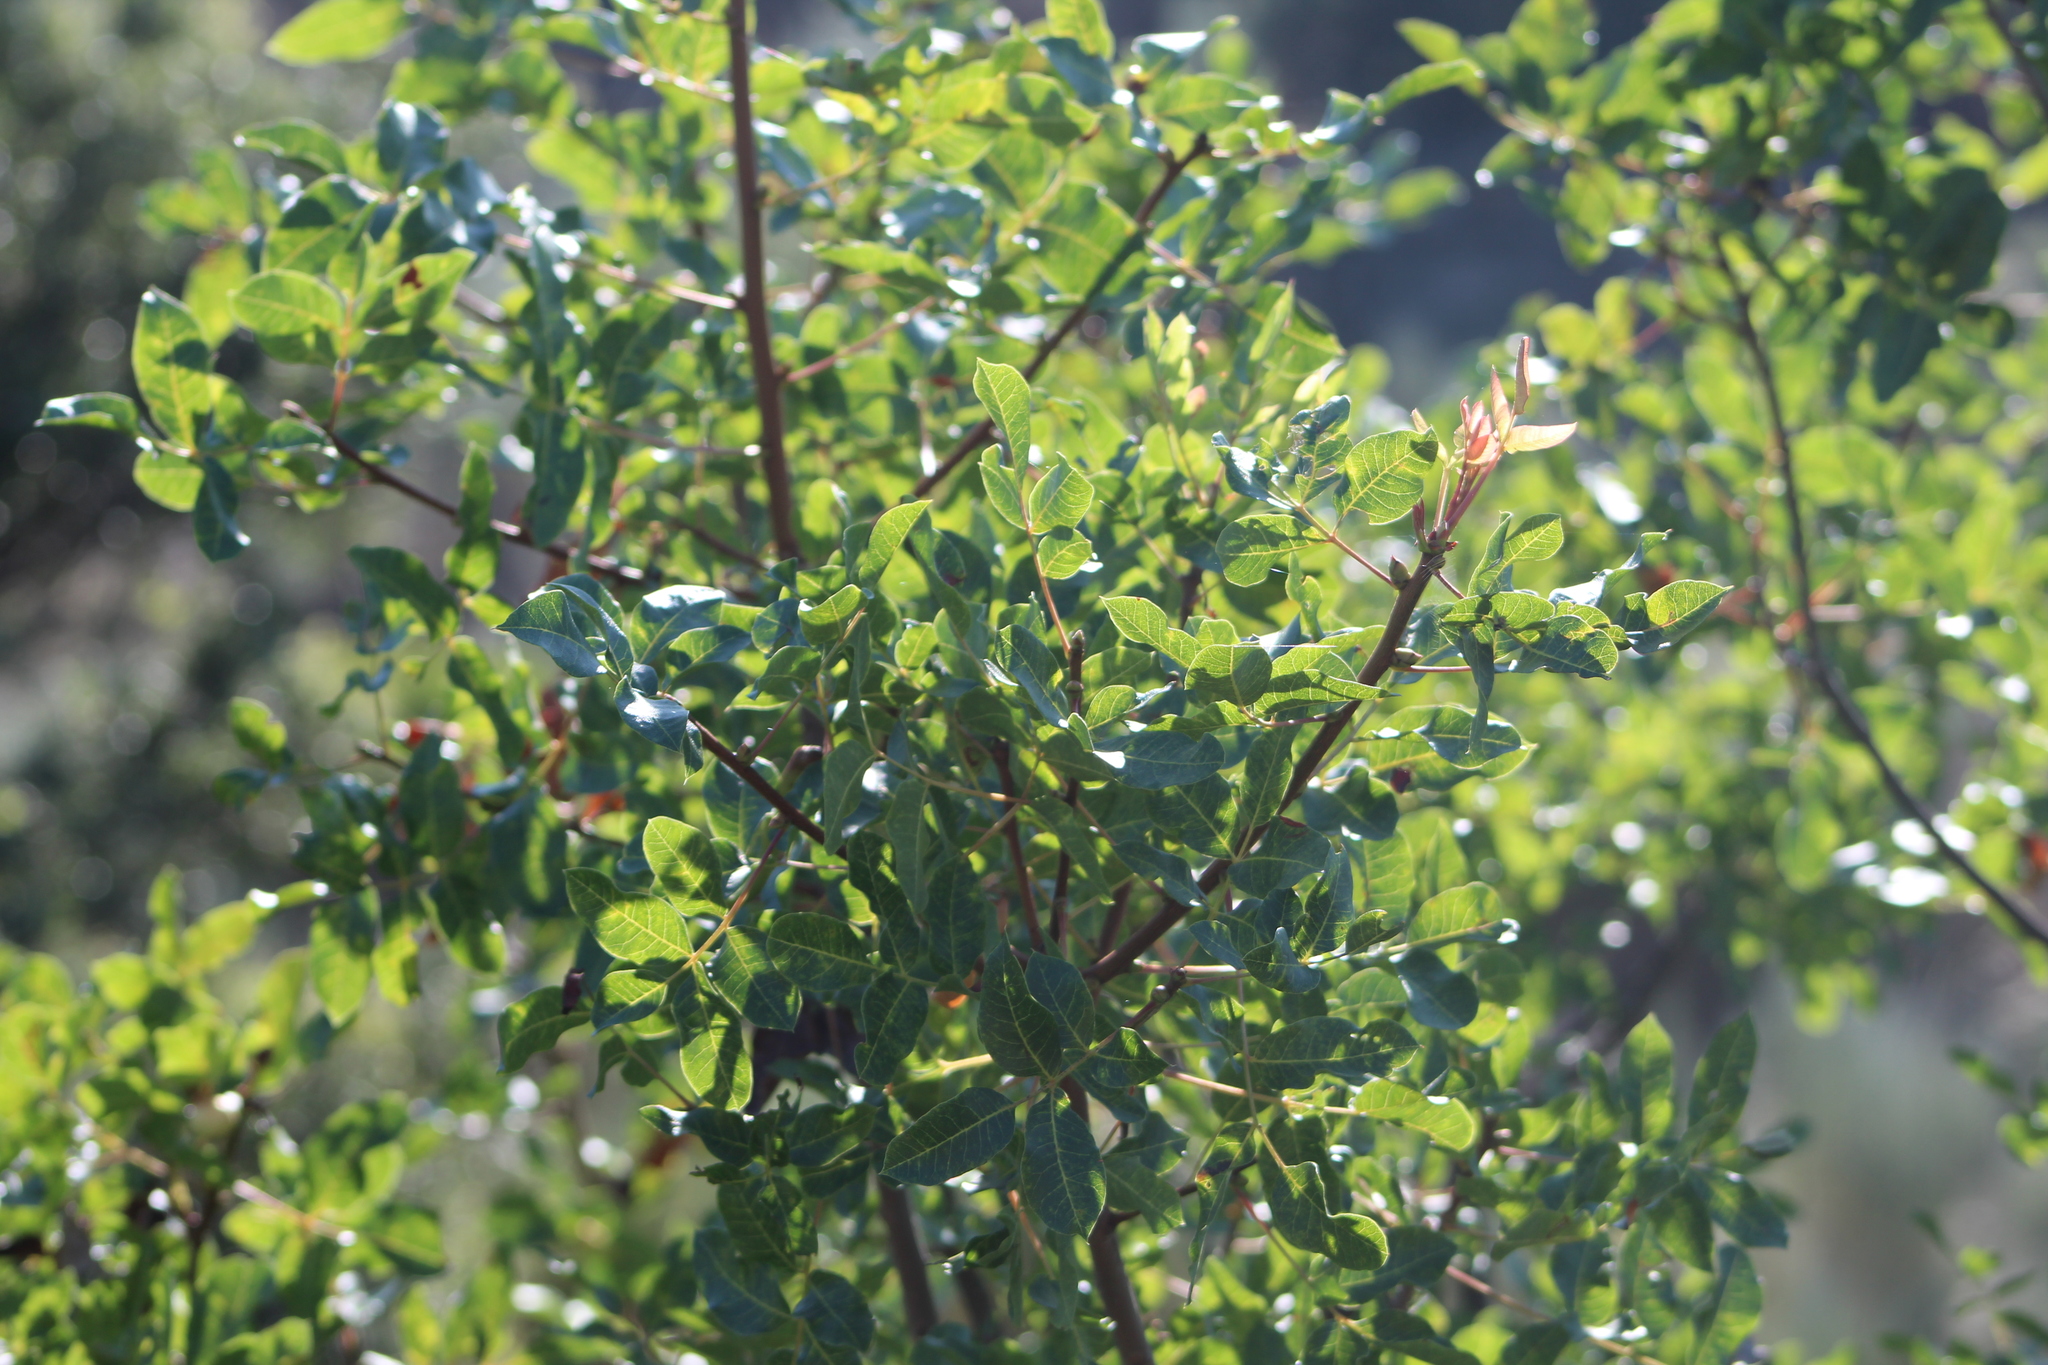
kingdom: Plantae
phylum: Tracheophyta
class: Magnoliopsida
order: Sapindales
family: Anacardiaceae
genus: Pistacia
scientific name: Pistacia terebinthus
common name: Terebinth
